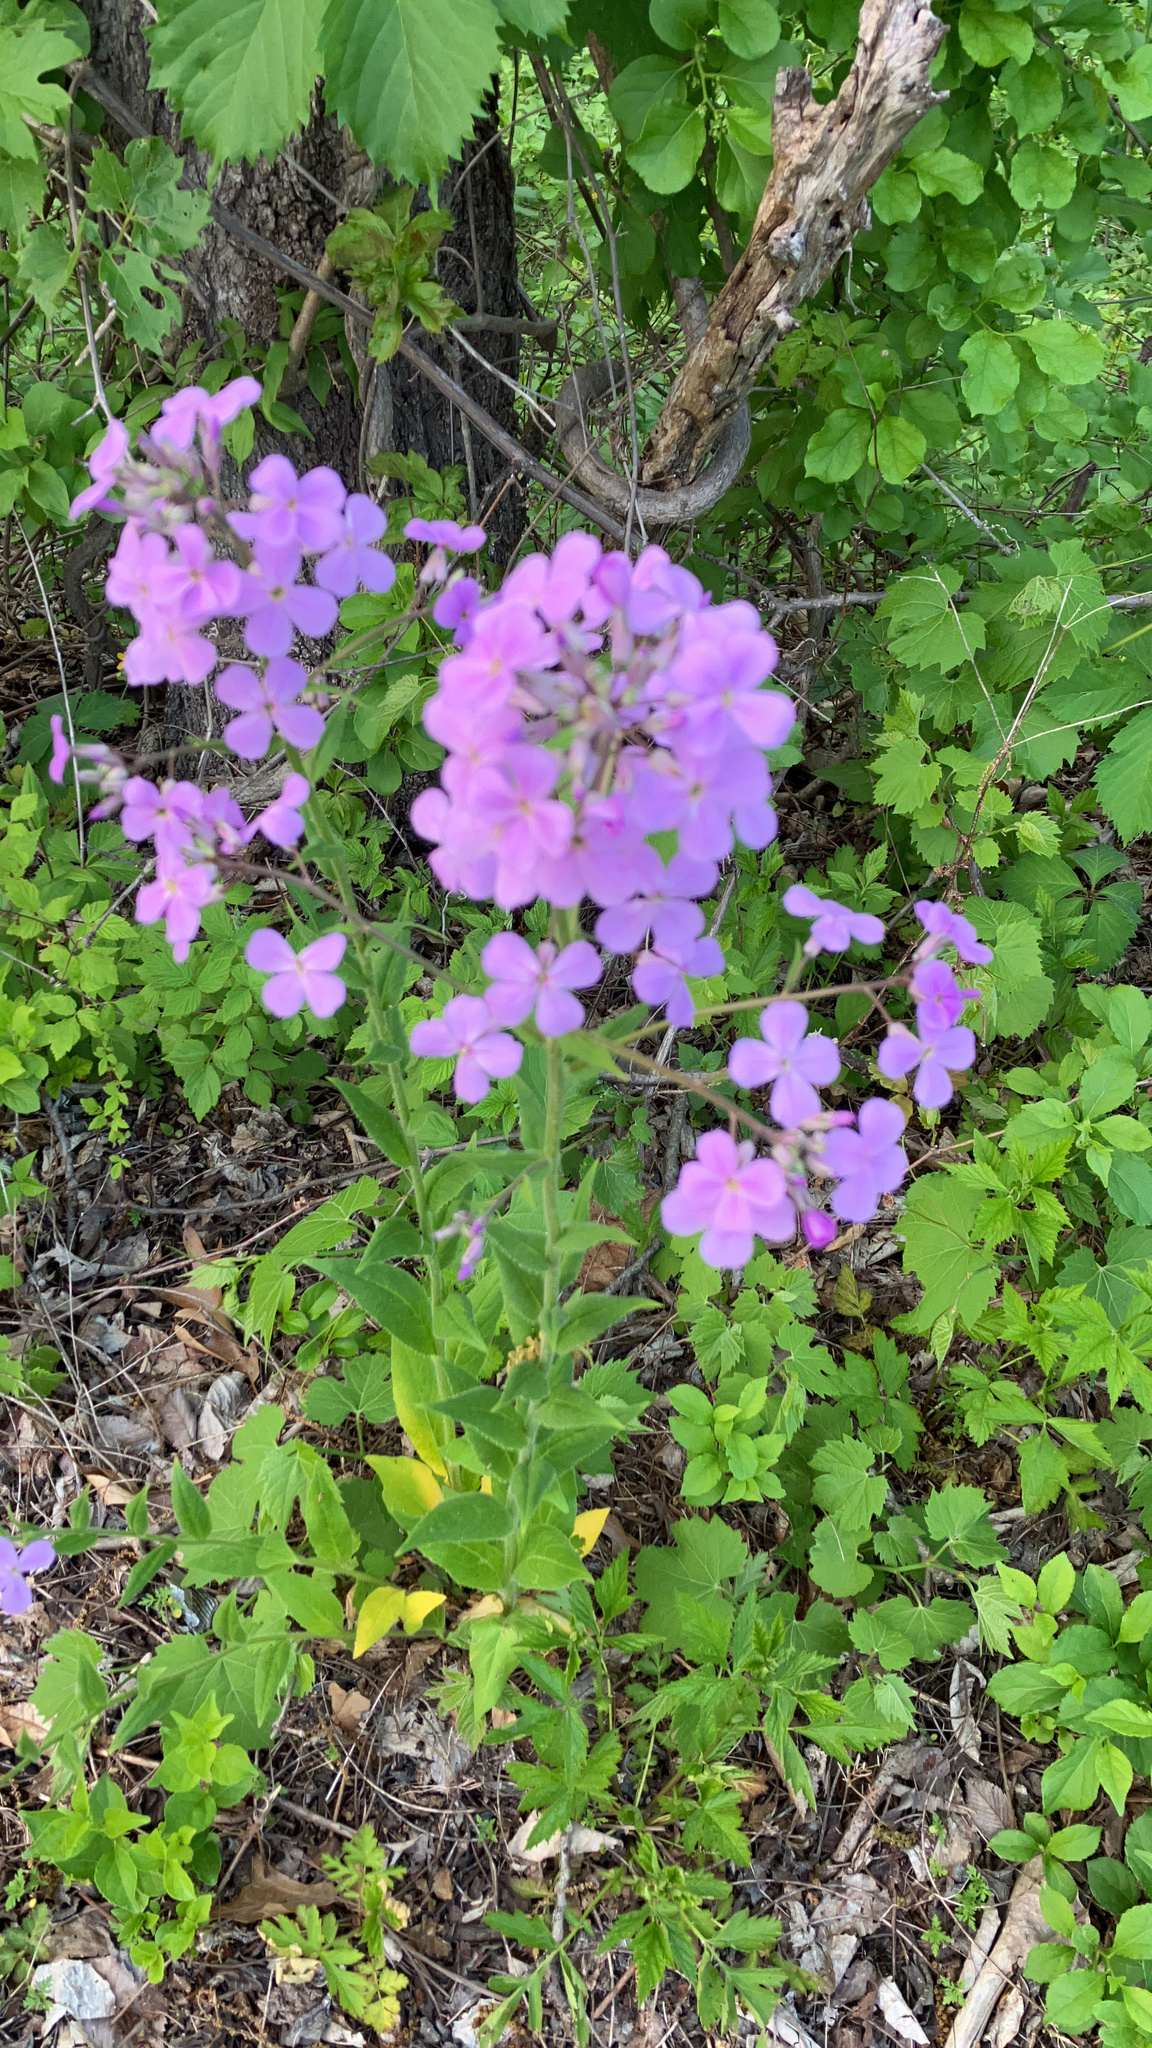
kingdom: Plantae
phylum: Tracheophyta
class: Magnoliopsida
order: Brassicales
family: Brassicaceae
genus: Hesperis
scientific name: Hesperis matronalis
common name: Dame's-violet
